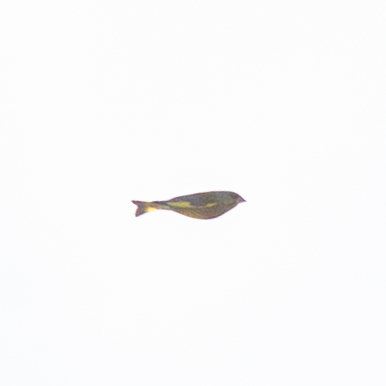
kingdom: Plantae
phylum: Tracheophyta
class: Liliopsida
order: Poales
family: Poaceae
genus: Chloris
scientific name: Chloris chloris
